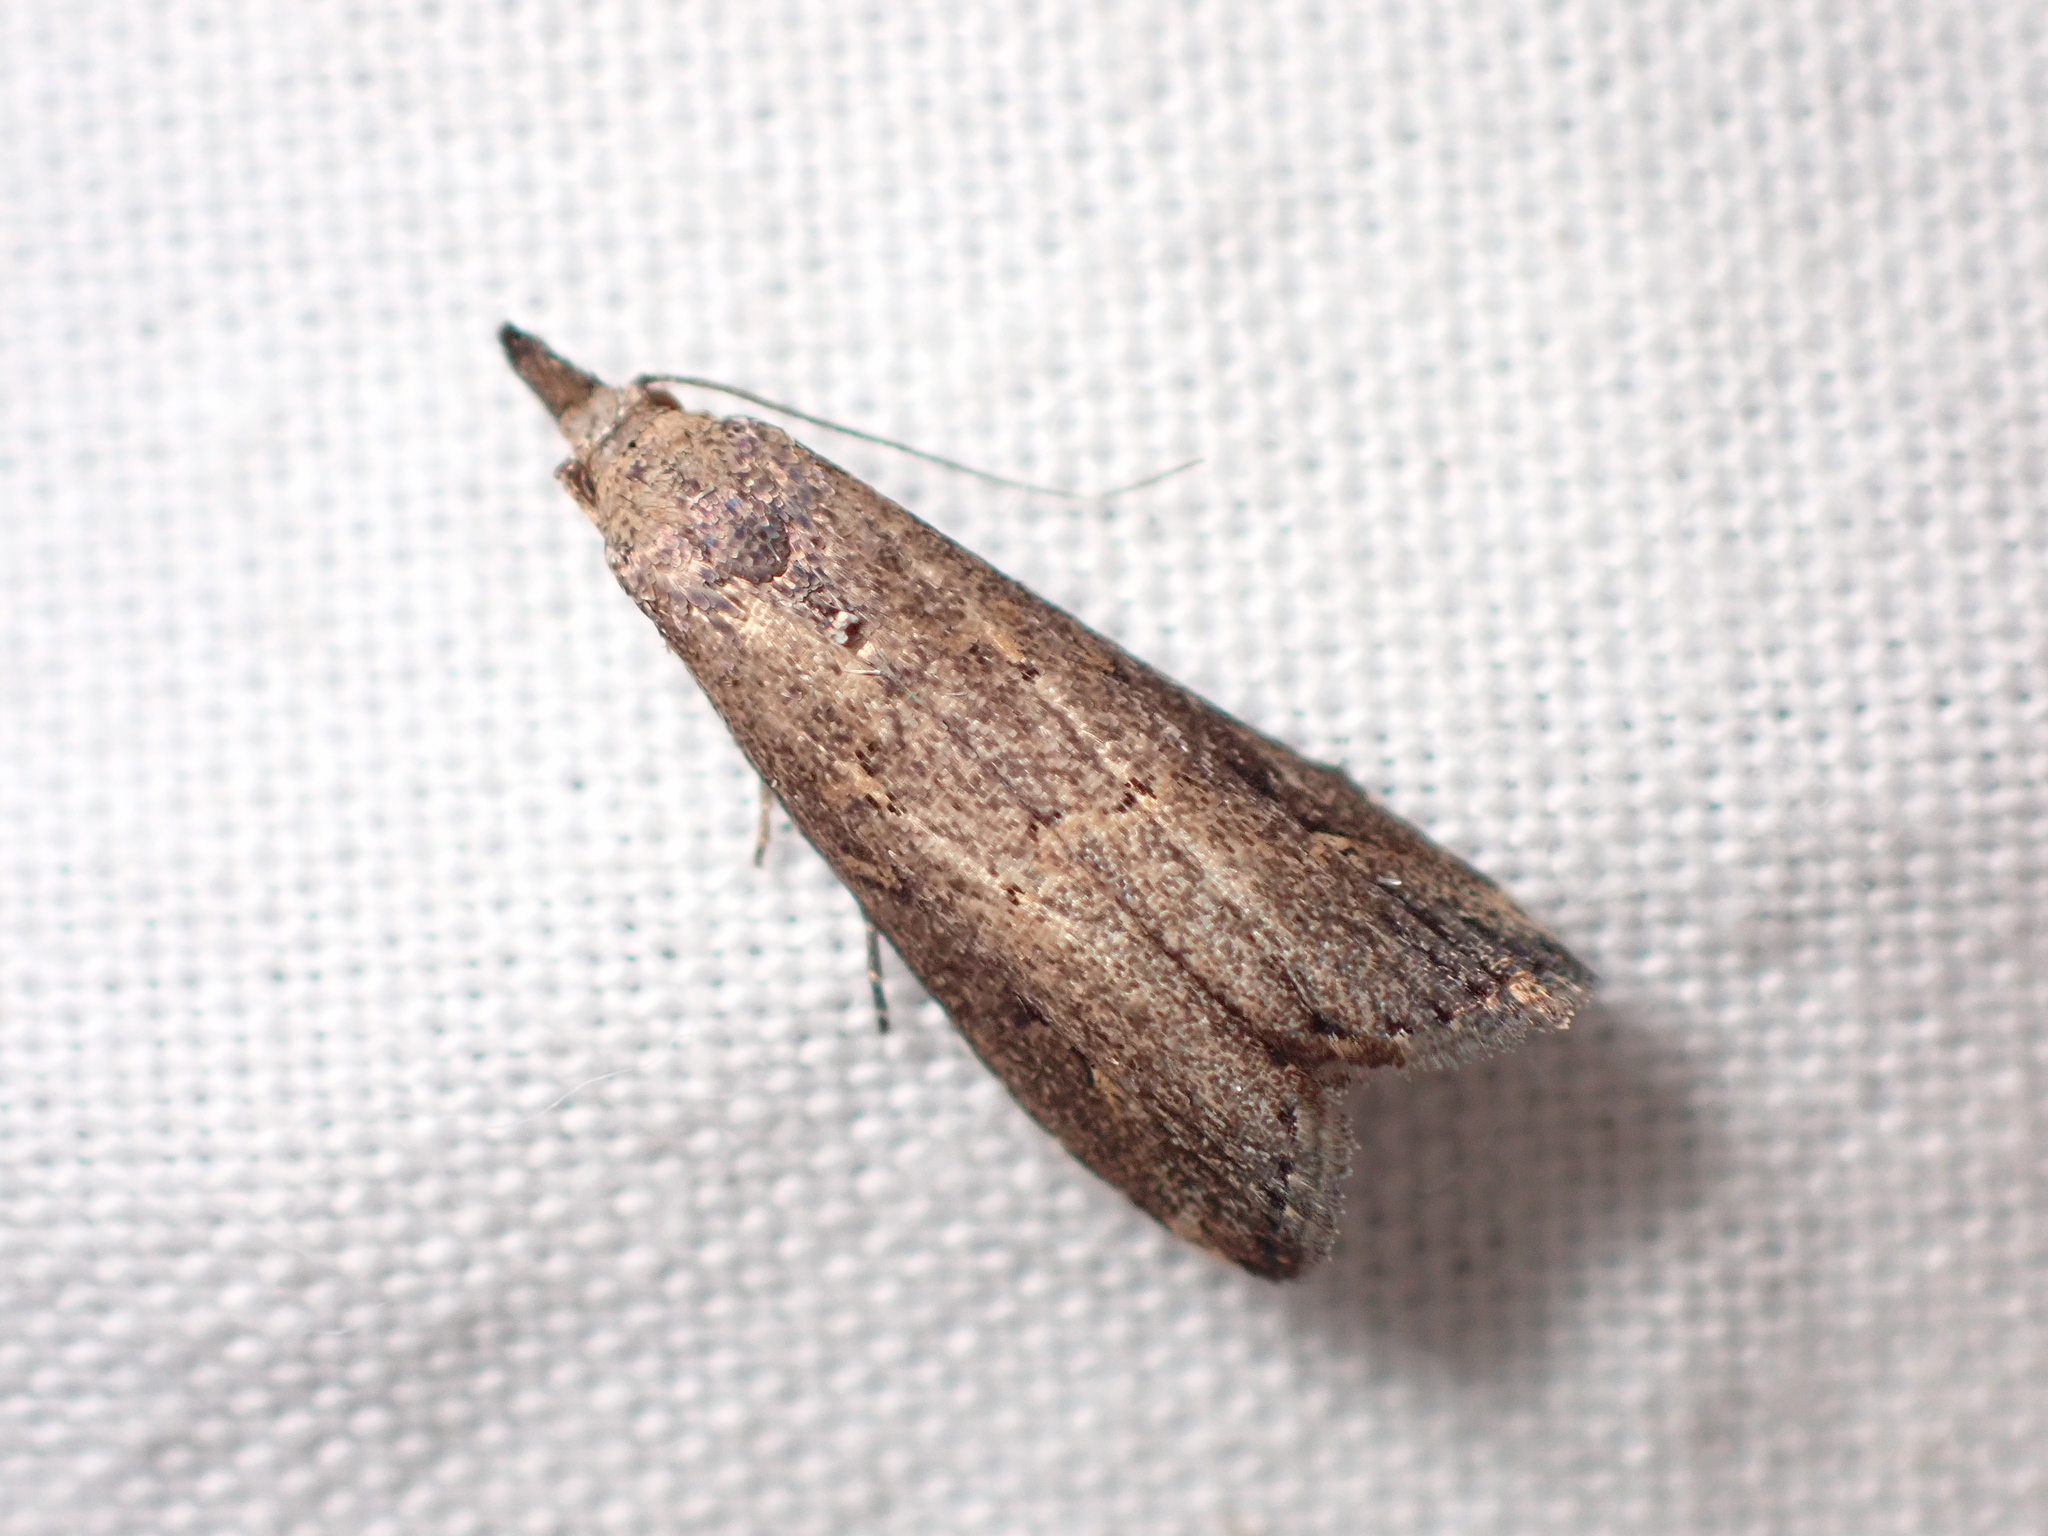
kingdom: Animalia
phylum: Arthropoda
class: Insecta
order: Lepidoptera
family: Erebidae
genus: Schrankia
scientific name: Schrankia costaestrigalis
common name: Pinion-streaked snout
